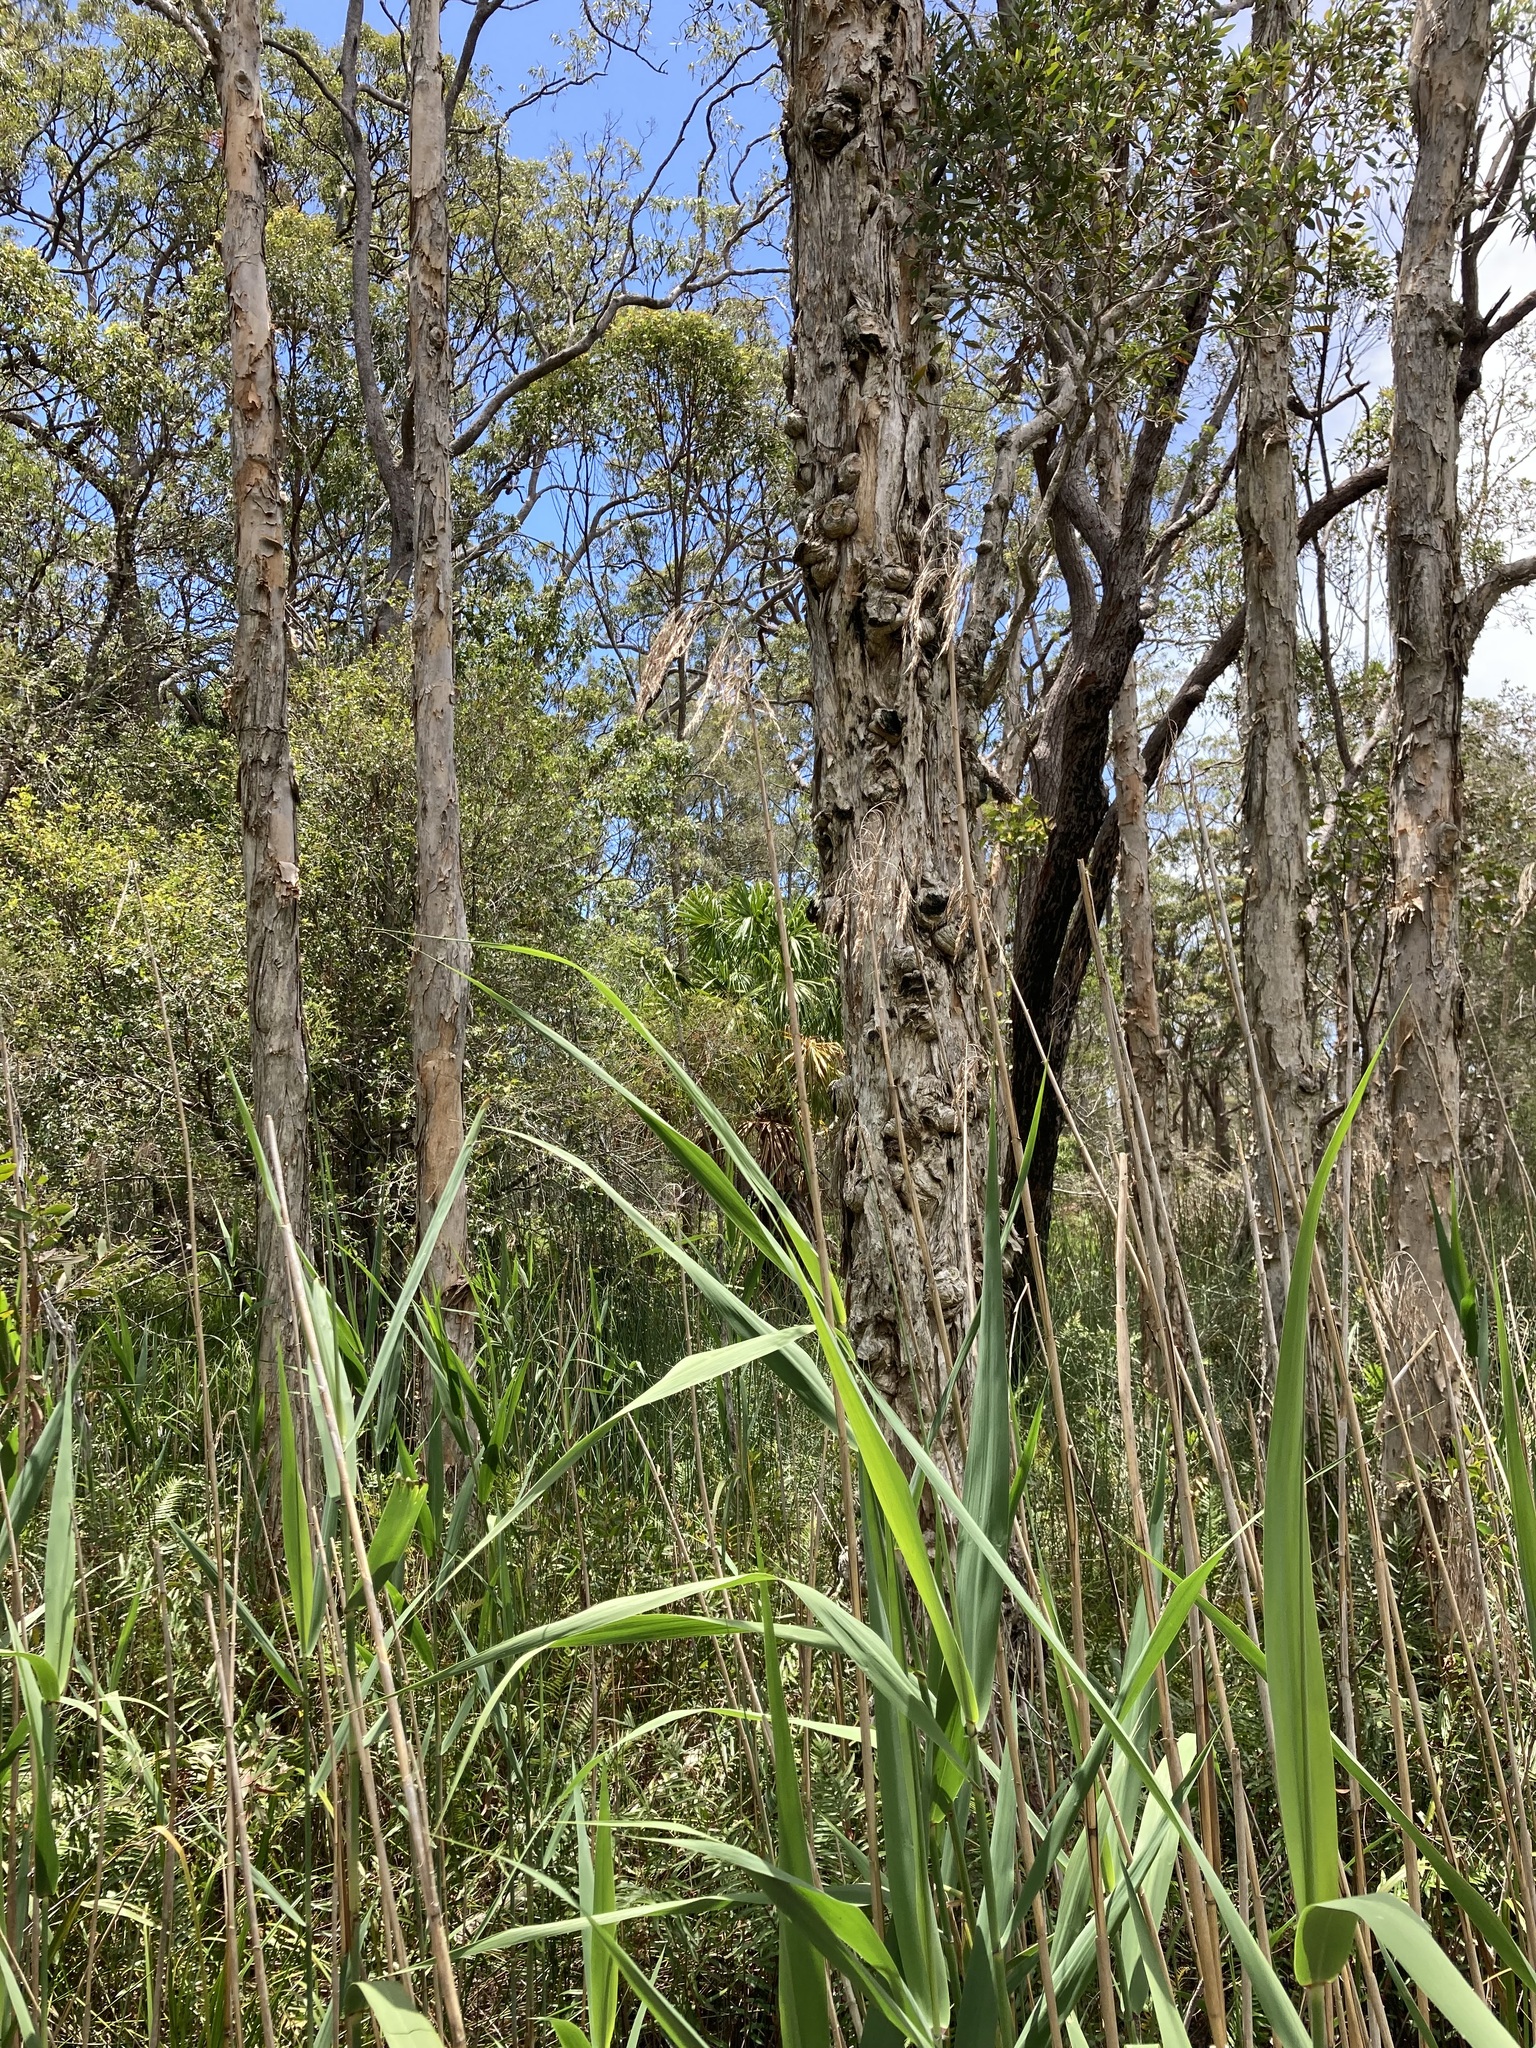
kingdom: Plantae
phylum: Tracheophyta
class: Liliopsida
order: Poales
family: Poaceae
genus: Phragmites
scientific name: Phragmites australis
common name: Common reed
